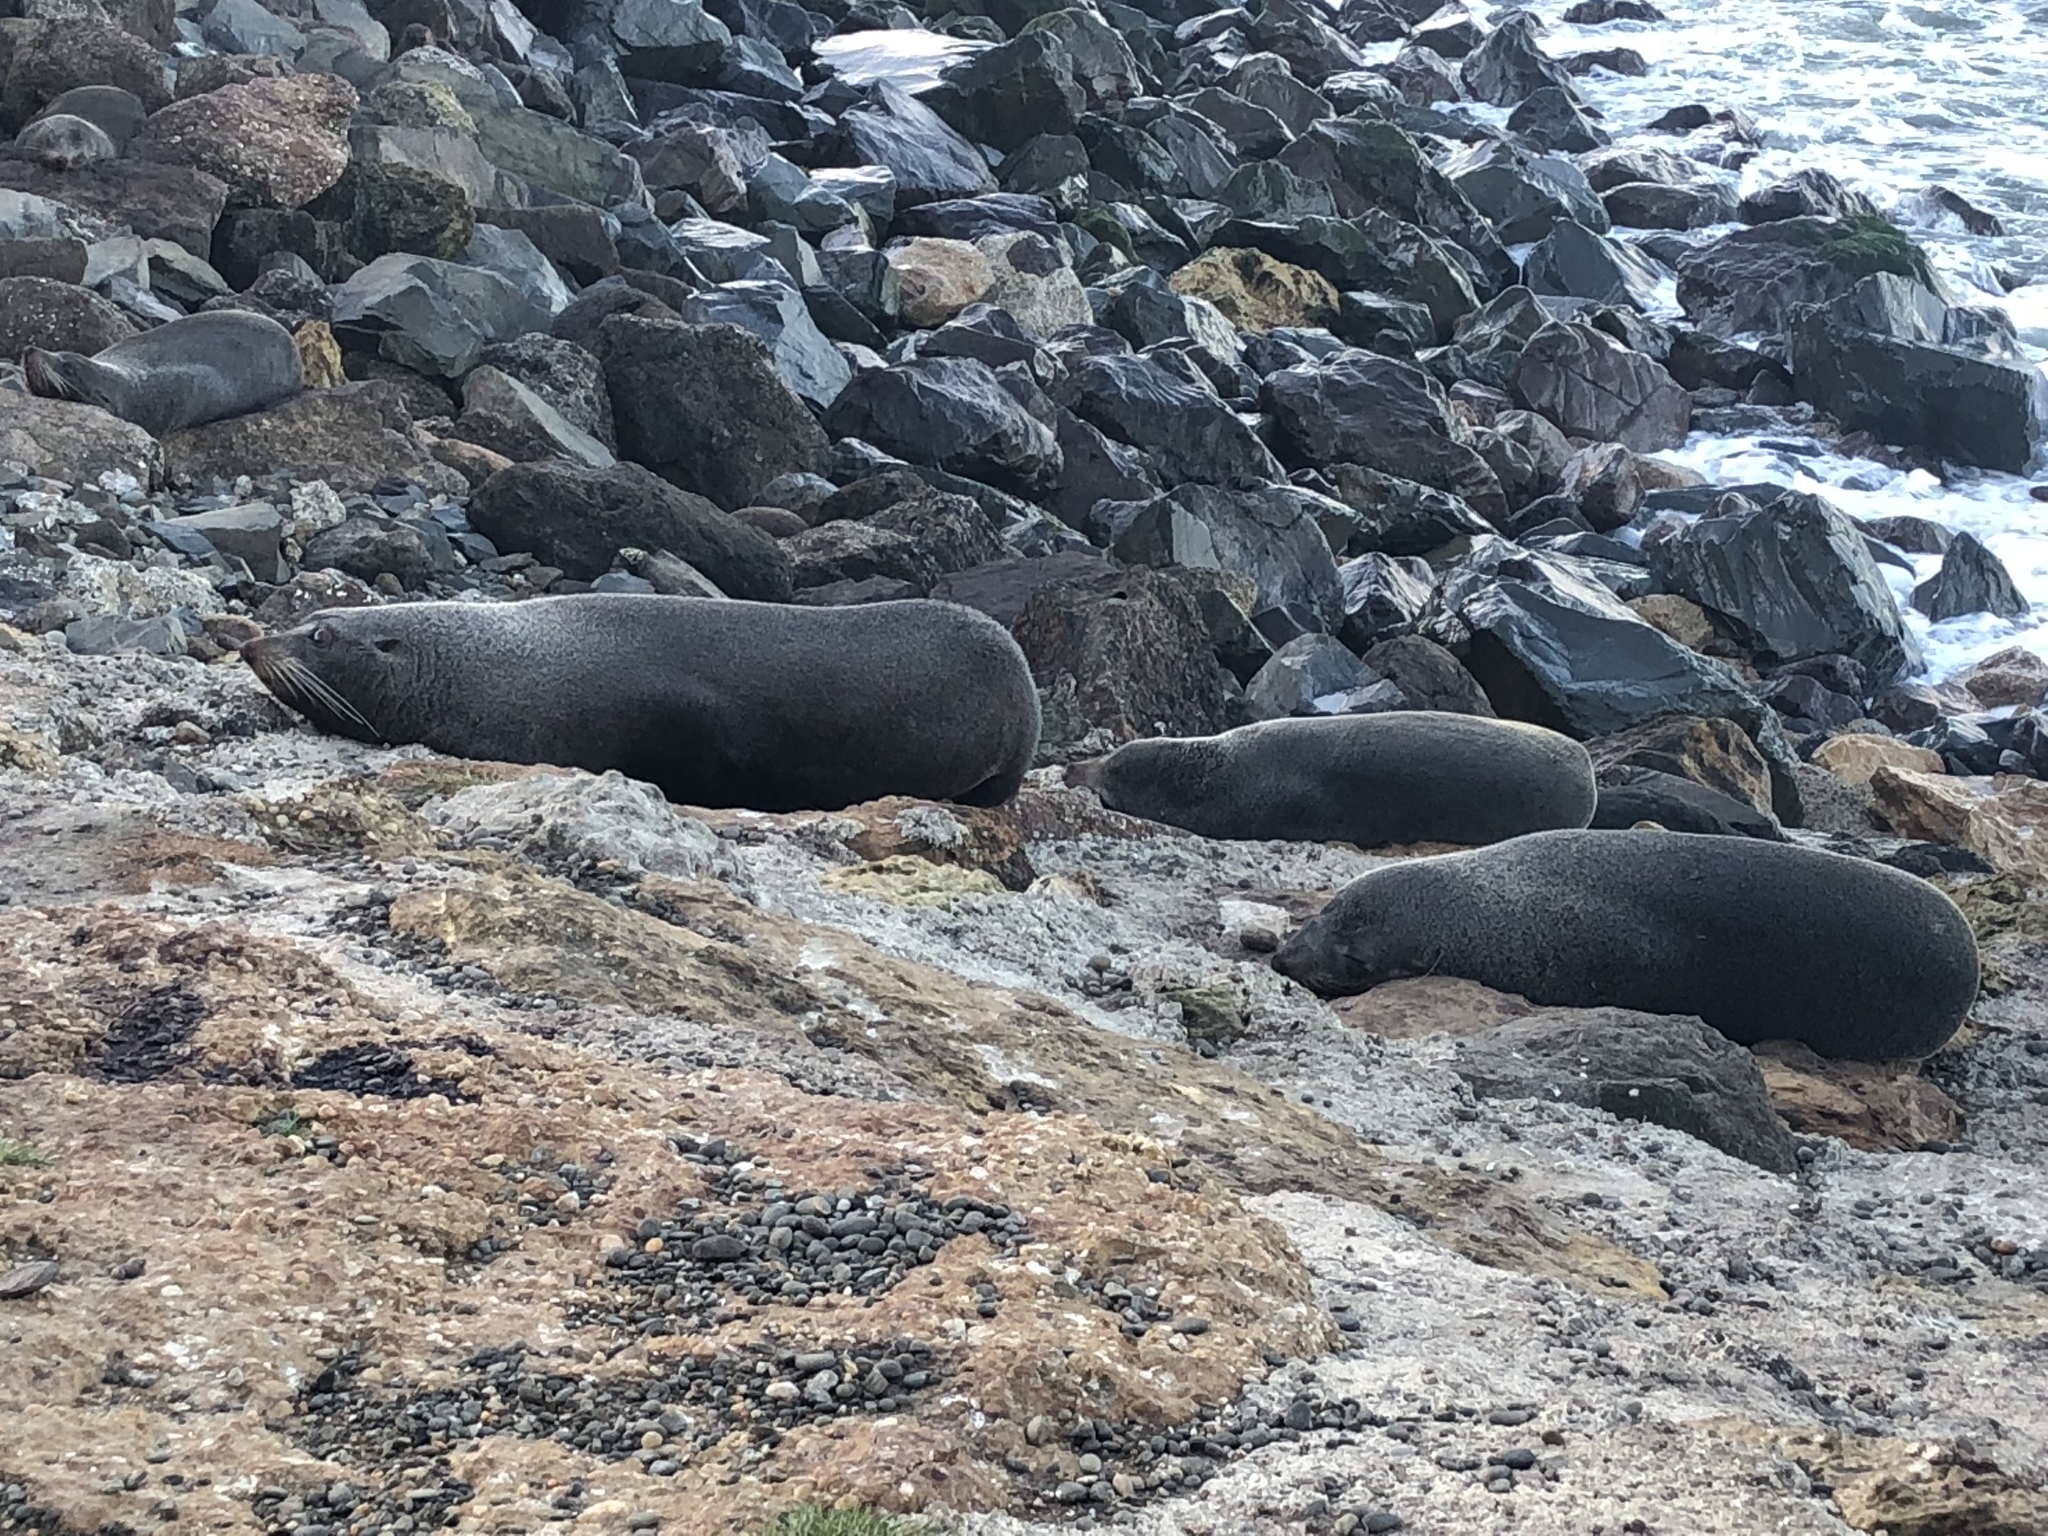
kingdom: Animalia
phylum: Chordata
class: Mammalia
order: Carnivora
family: Otariidae
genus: Arctocephalus
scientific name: Arctocephalus forsteri
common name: New zealand fur seal
